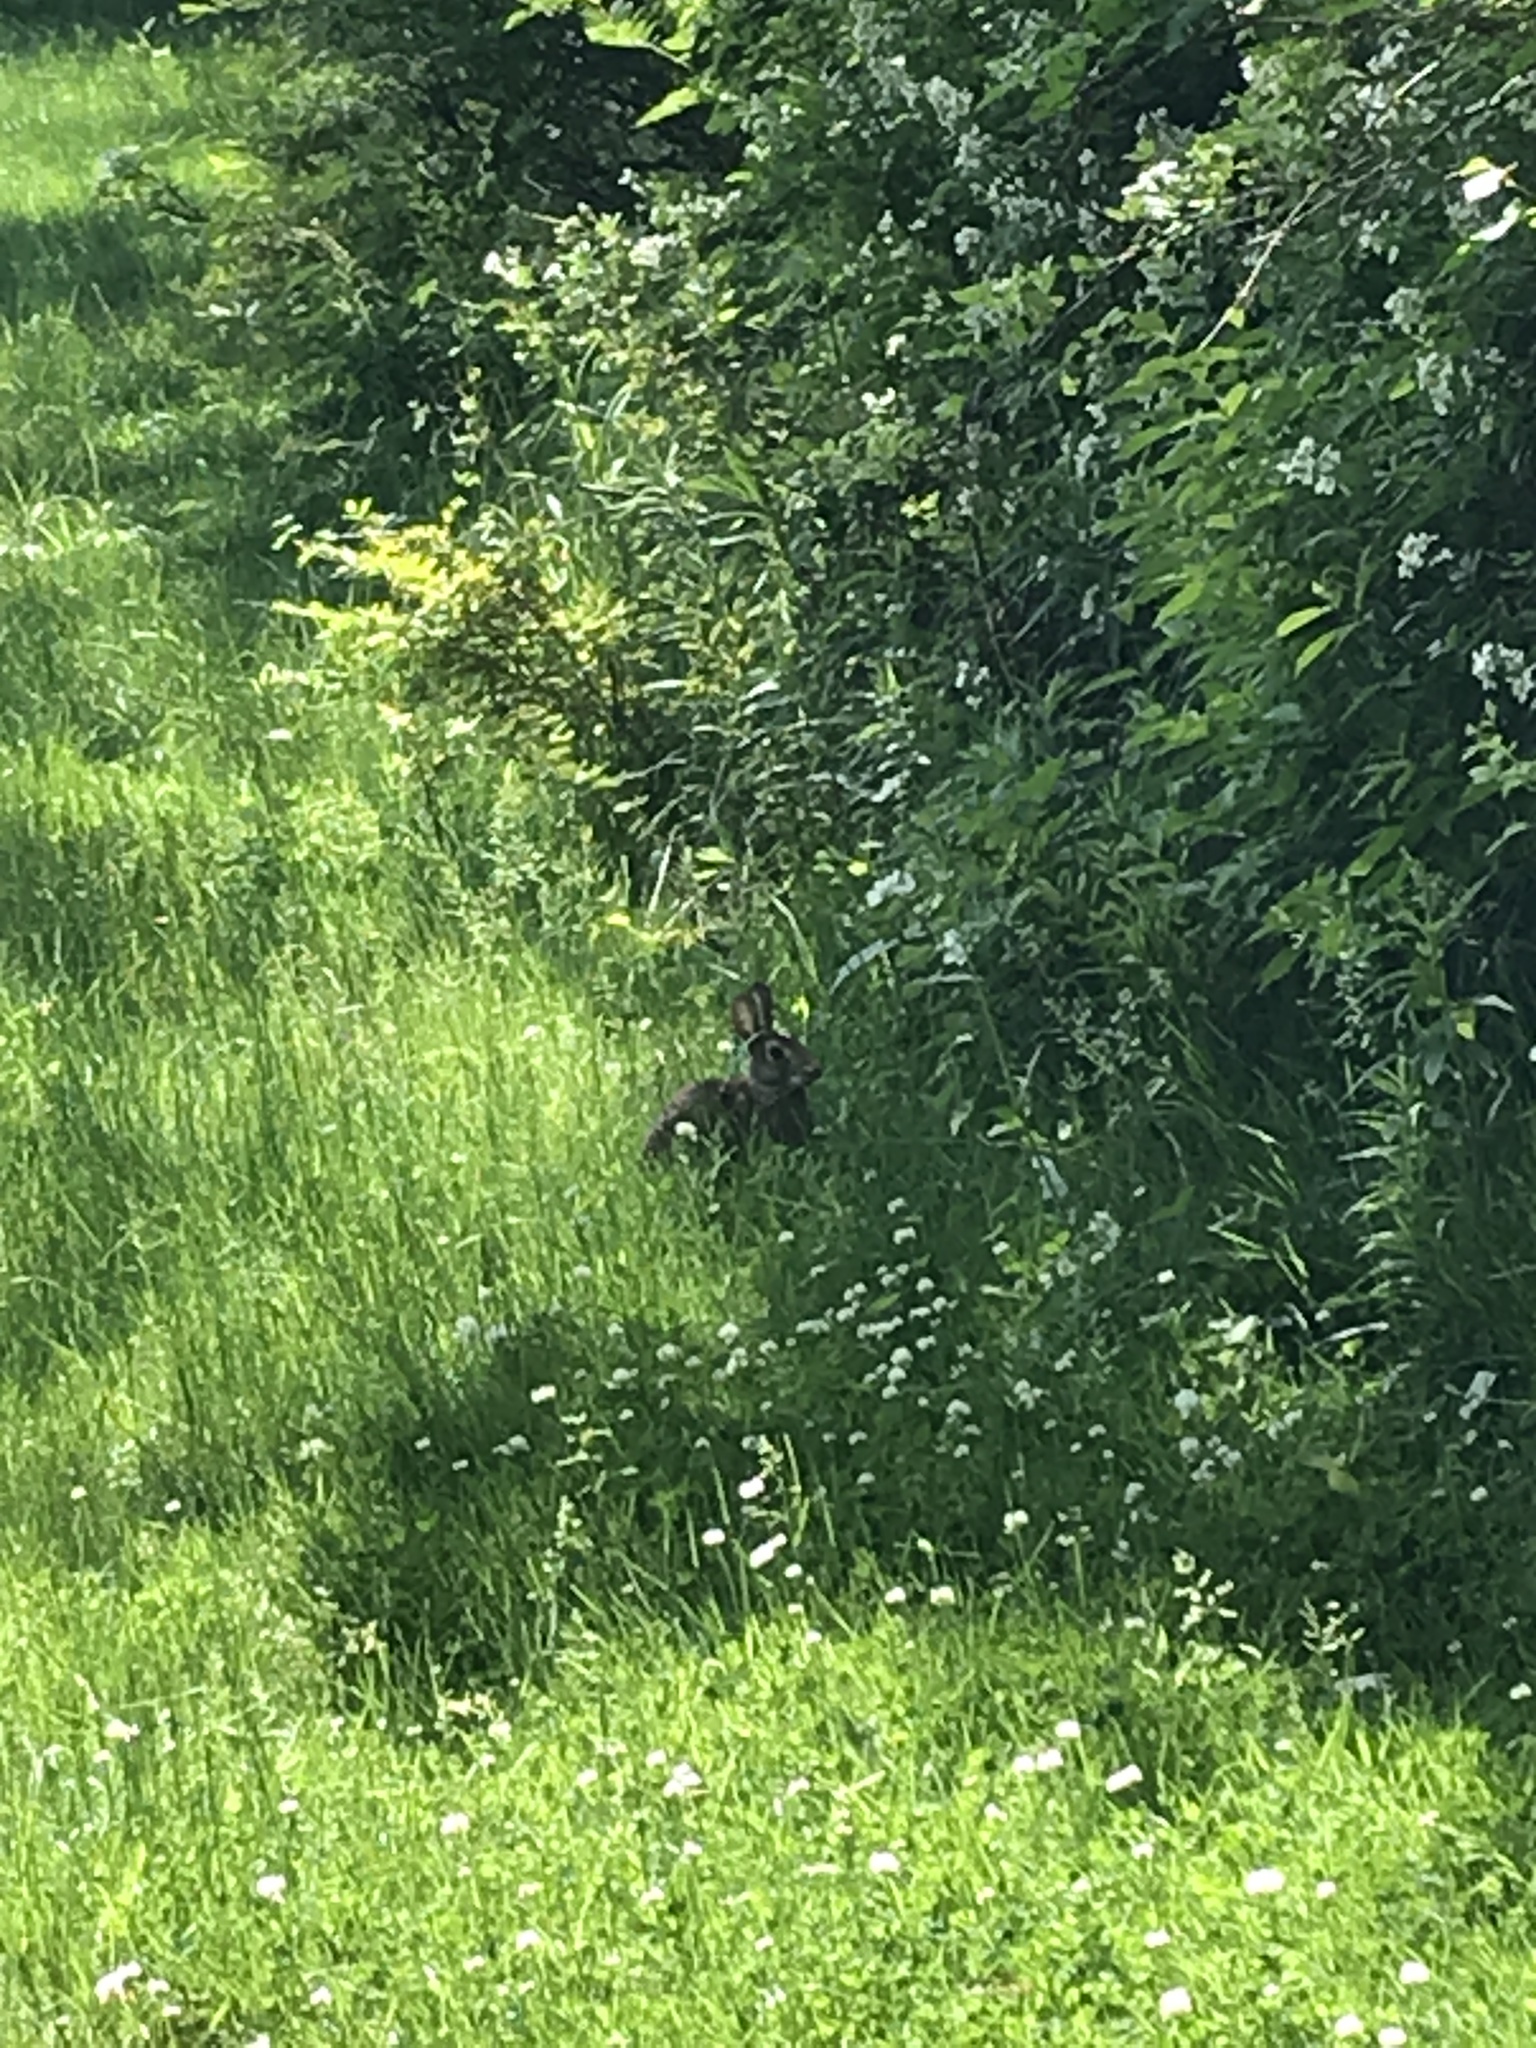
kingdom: Animalia
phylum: Chordata
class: Mammalia
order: Lagomorpha
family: Leporidae
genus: Sylvilagus
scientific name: Sylvilagus floridanus
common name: Eastern cottontail
